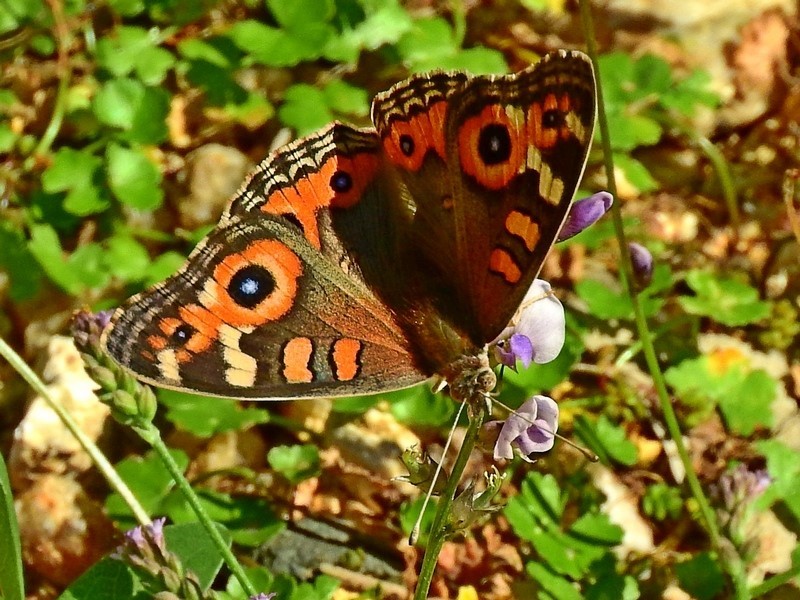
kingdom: Animalia
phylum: Arthropoda
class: Insecta
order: Lepidoptera
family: Nymphalidae
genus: Junonia
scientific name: Junonia villida
